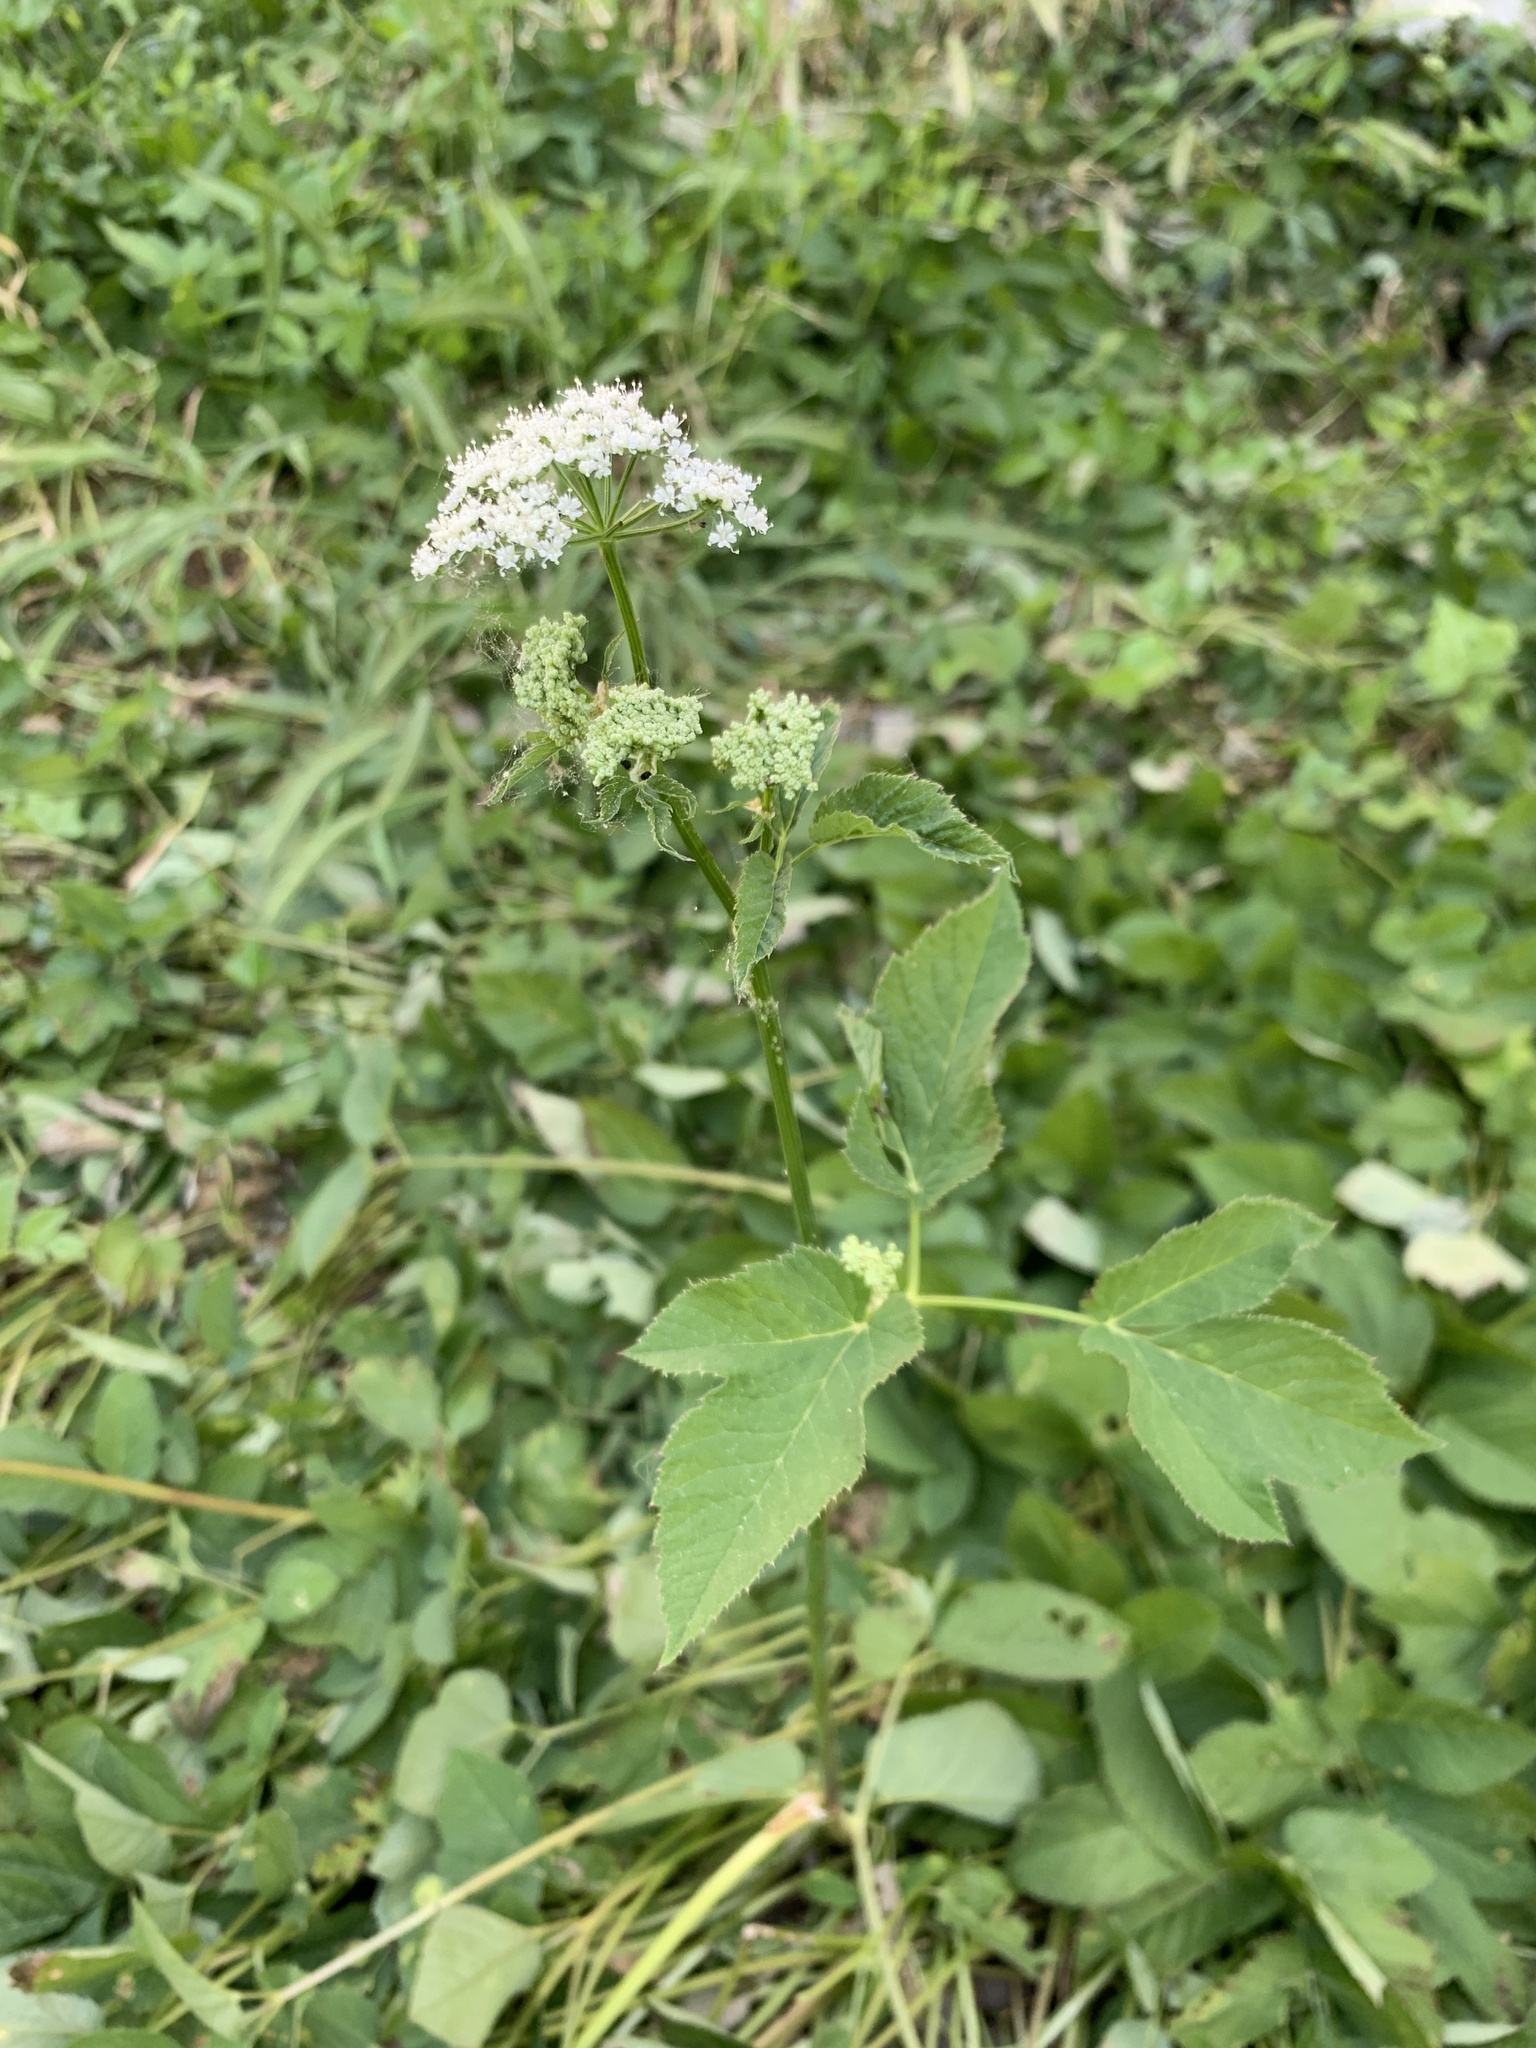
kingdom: Plantae
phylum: Tracheophyta
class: Magnoliopsida
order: Apiales
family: Apiaceae
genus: Aegopodium
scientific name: Aegopodium podagraria
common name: Ground-elder
